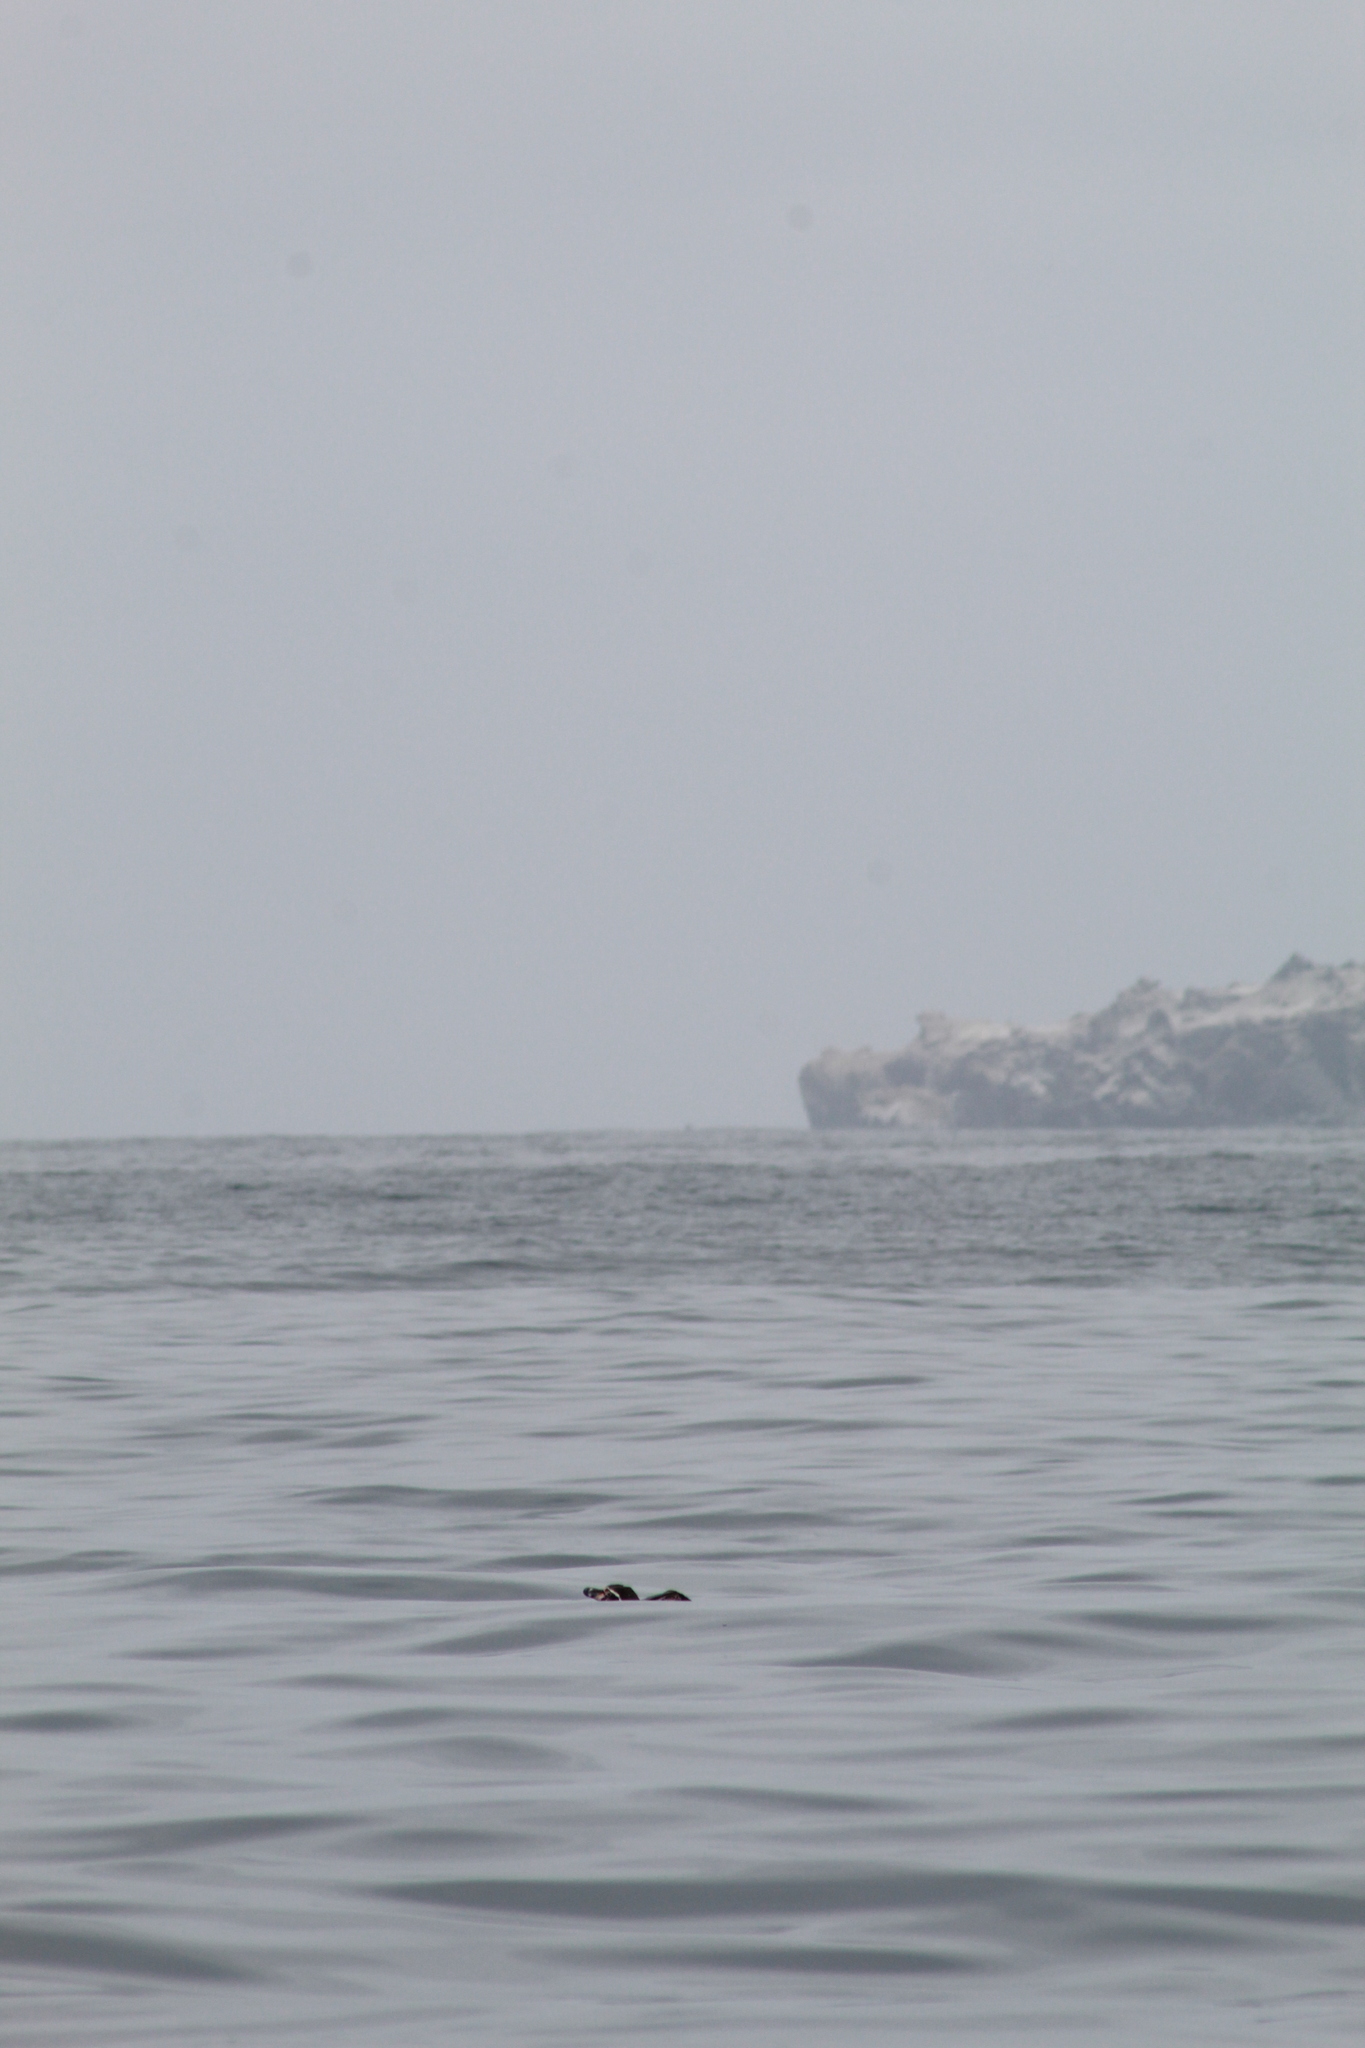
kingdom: Animalia
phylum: Chordata
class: Aves
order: Sphenisciformes
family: Spheniscidae
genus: Spheniscus
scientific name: Spheniscus humboldti
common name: Humboldt penguin
